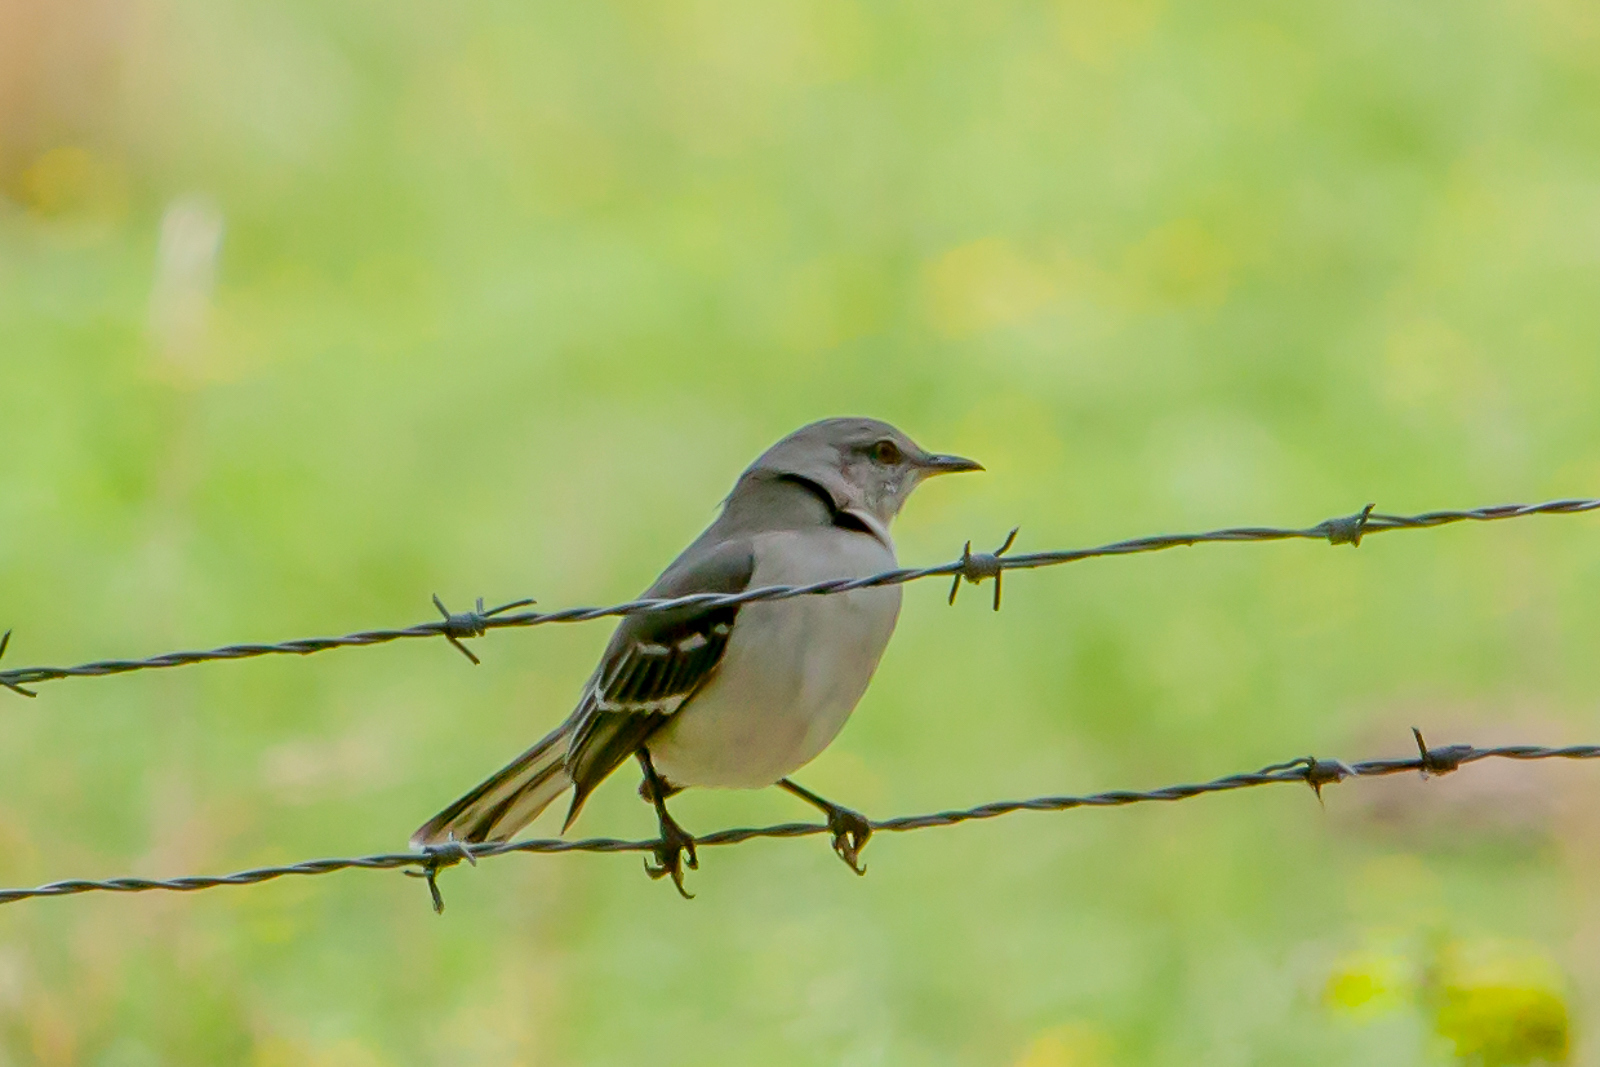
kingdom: Animalia
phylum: Chordata
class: Aves
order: Passeriformes
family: Mimidae
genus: Mimus
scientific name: Mimus polyglottos
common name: Northern mockingbird
